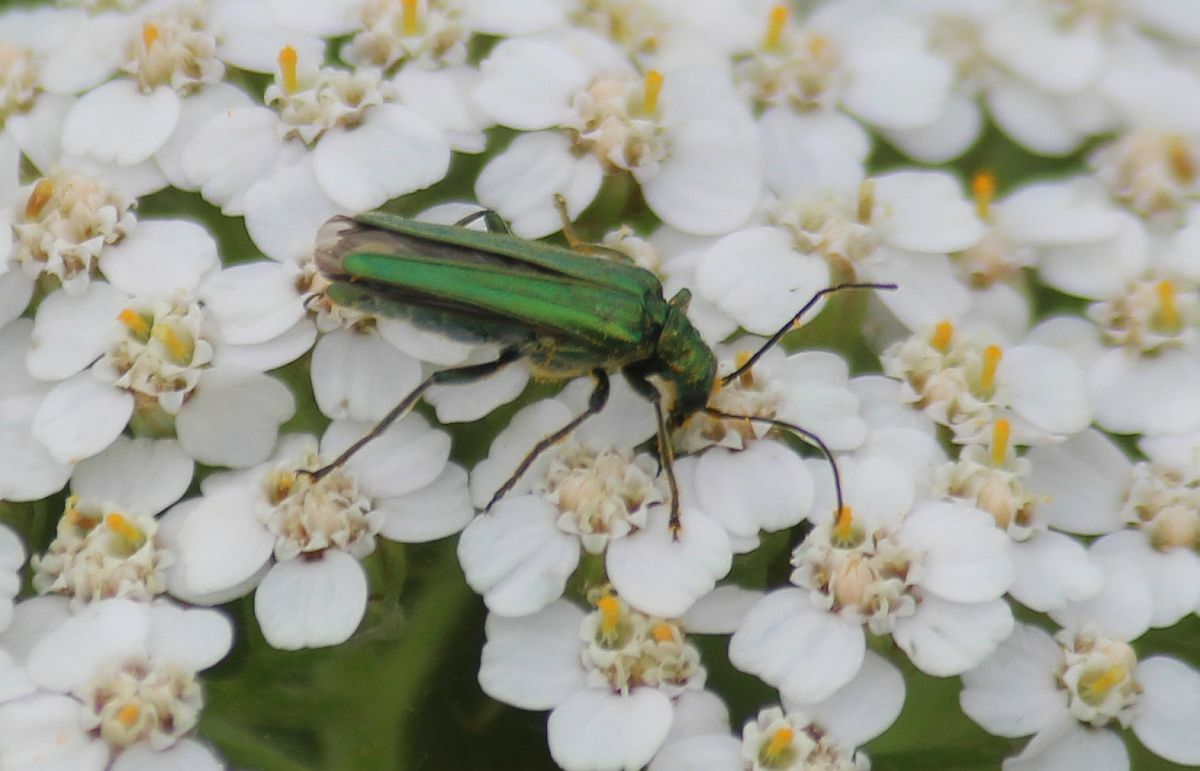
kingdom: Animalia
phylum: Arthropoda
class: Insecta
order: Coleoptera
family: Oedemeridae
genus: Oedemera
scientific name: Oedemera nobilis
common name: Swollen-thighed beetle
